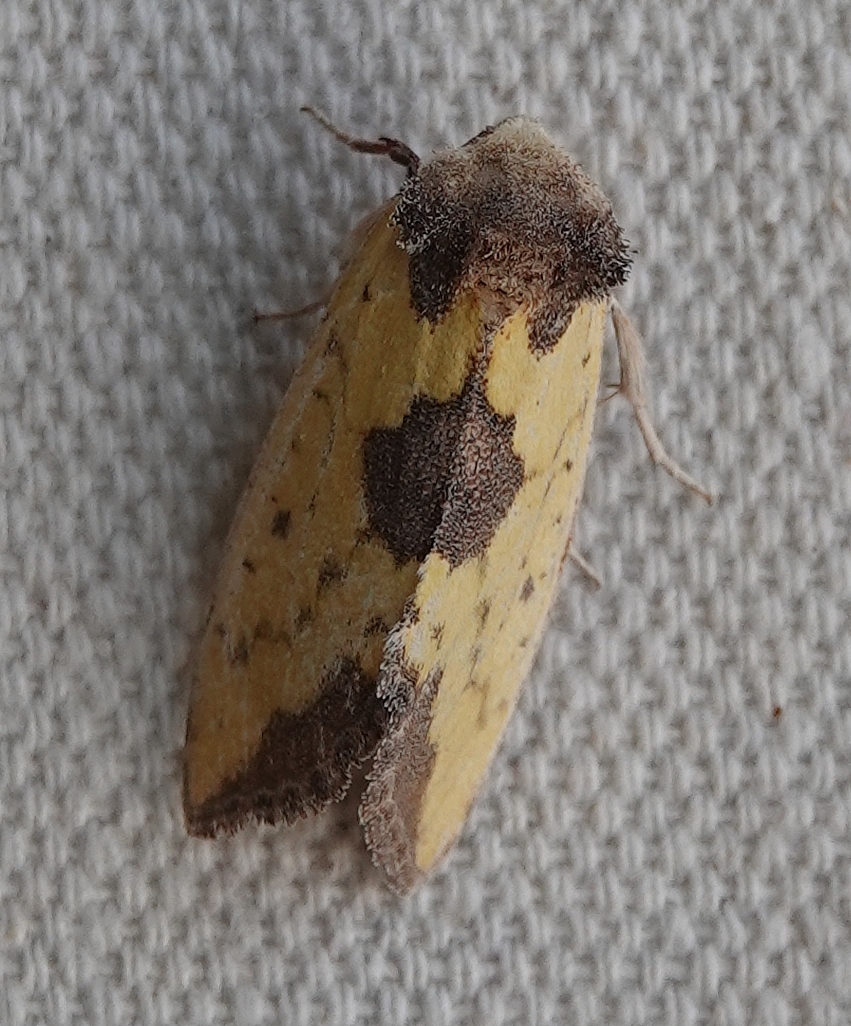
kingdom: Animalia
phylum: Arthropoda
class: Insecta
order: Lepidoptera
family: Noctuidae
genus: Stiria
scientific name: Stiria rugifrons
